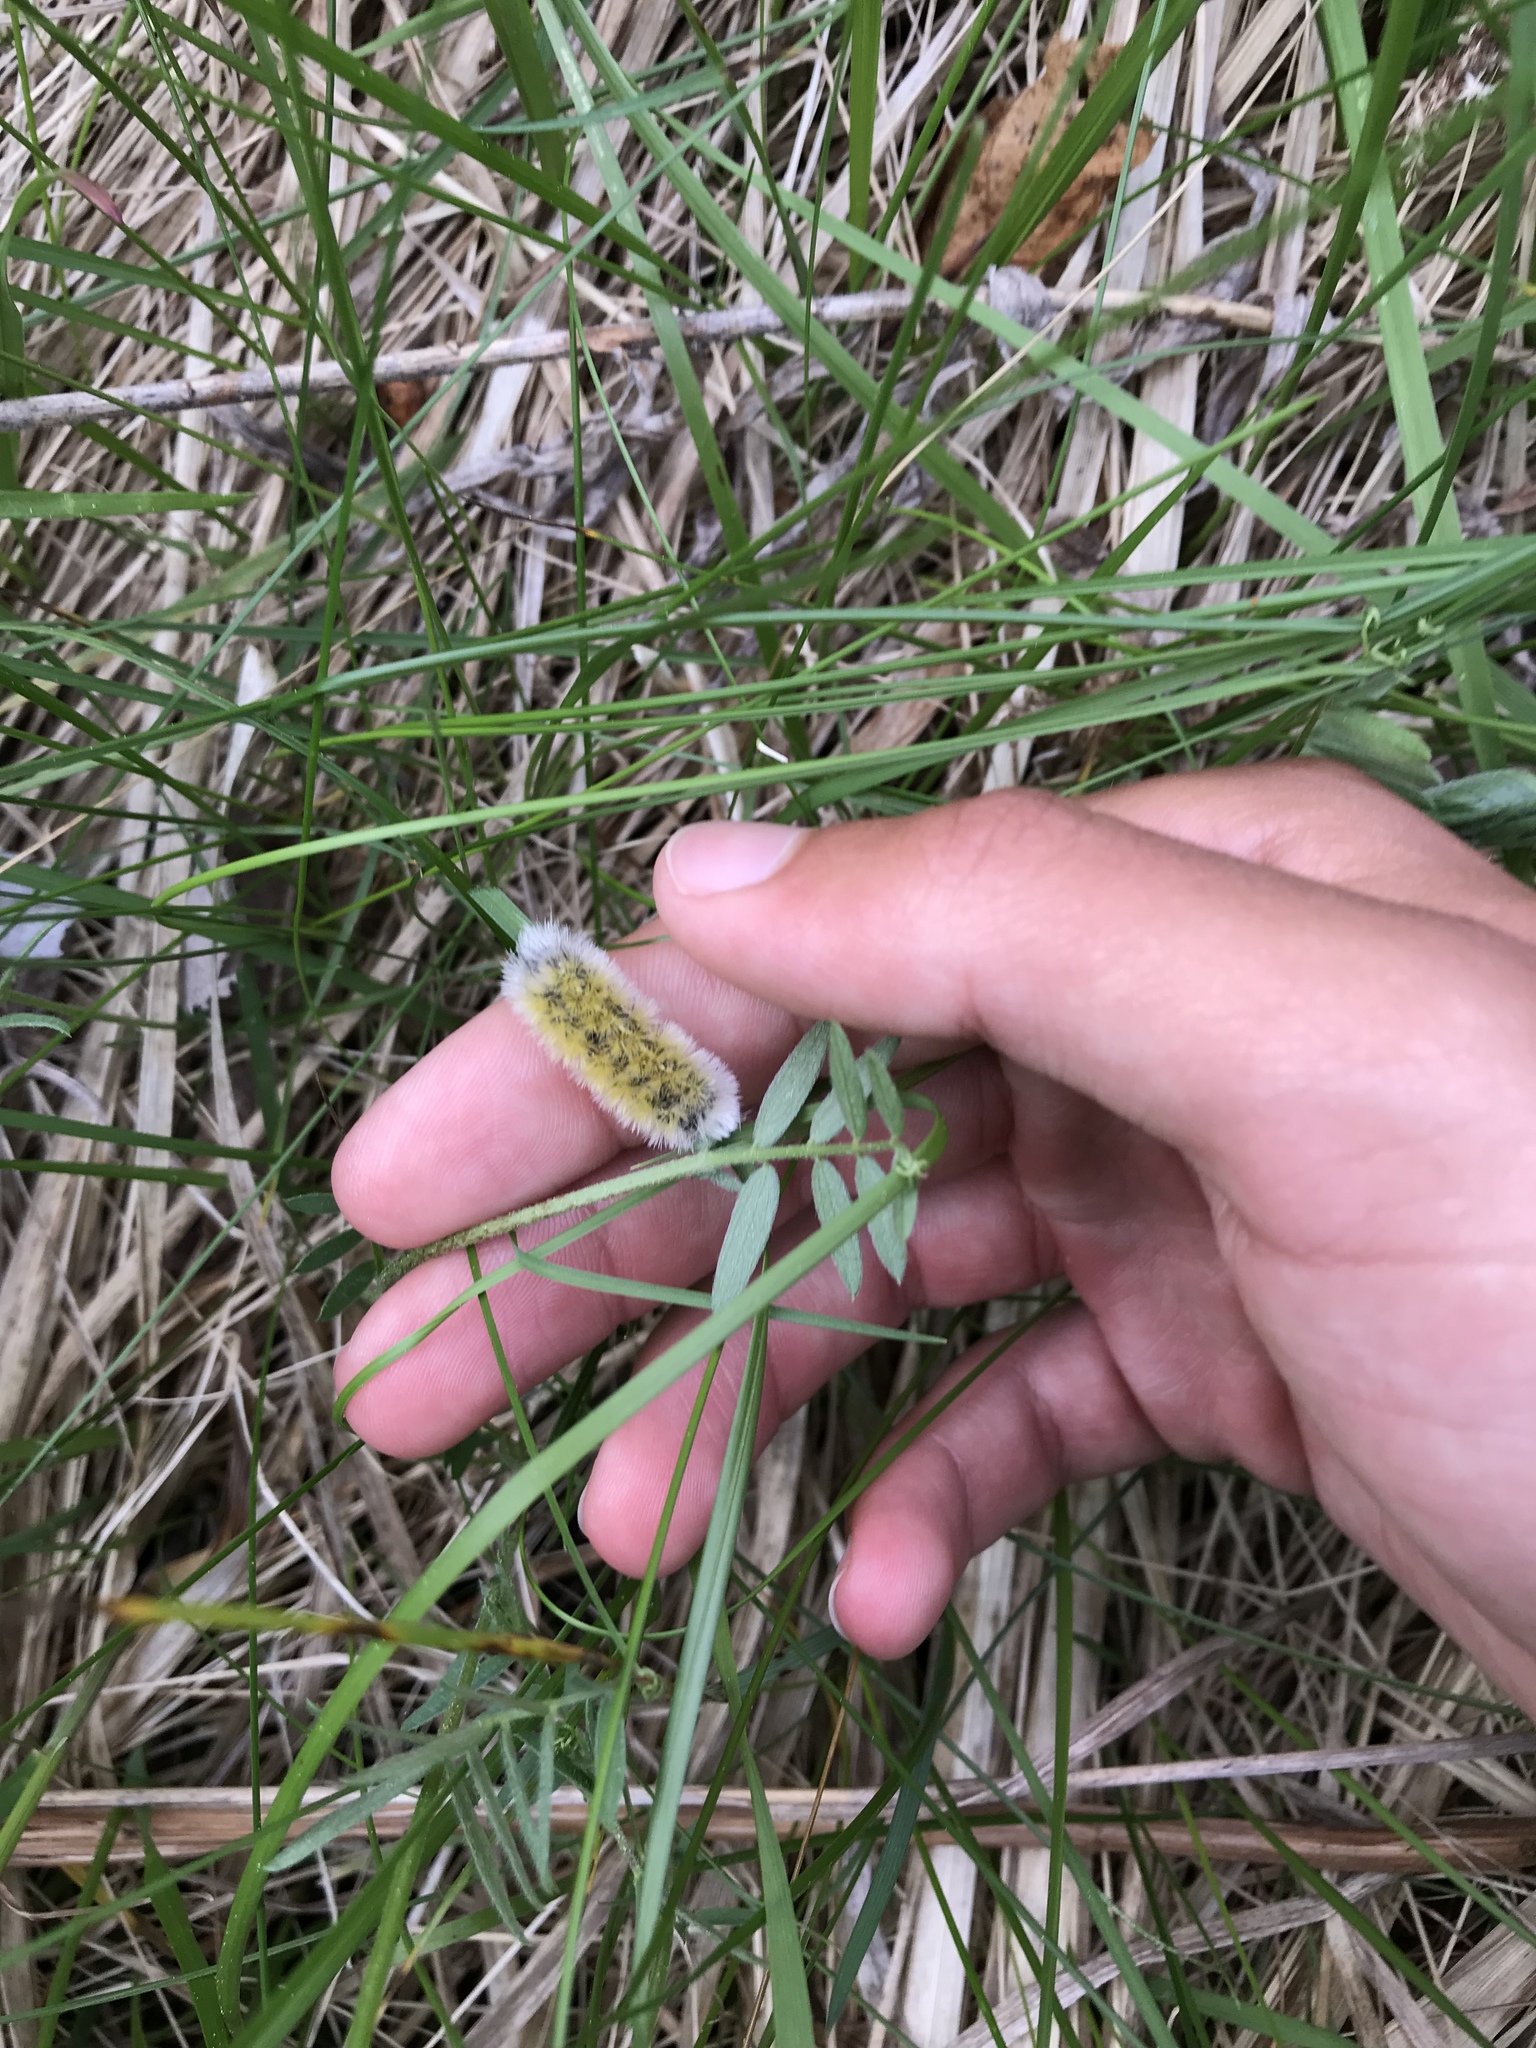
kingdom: Animalia
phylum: Arthropoda
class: Insecta
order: Lepidoptera
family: Erebidae
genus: Ctenucha
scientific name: Ctenucha virginica
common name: Virginia ctenucha moth
